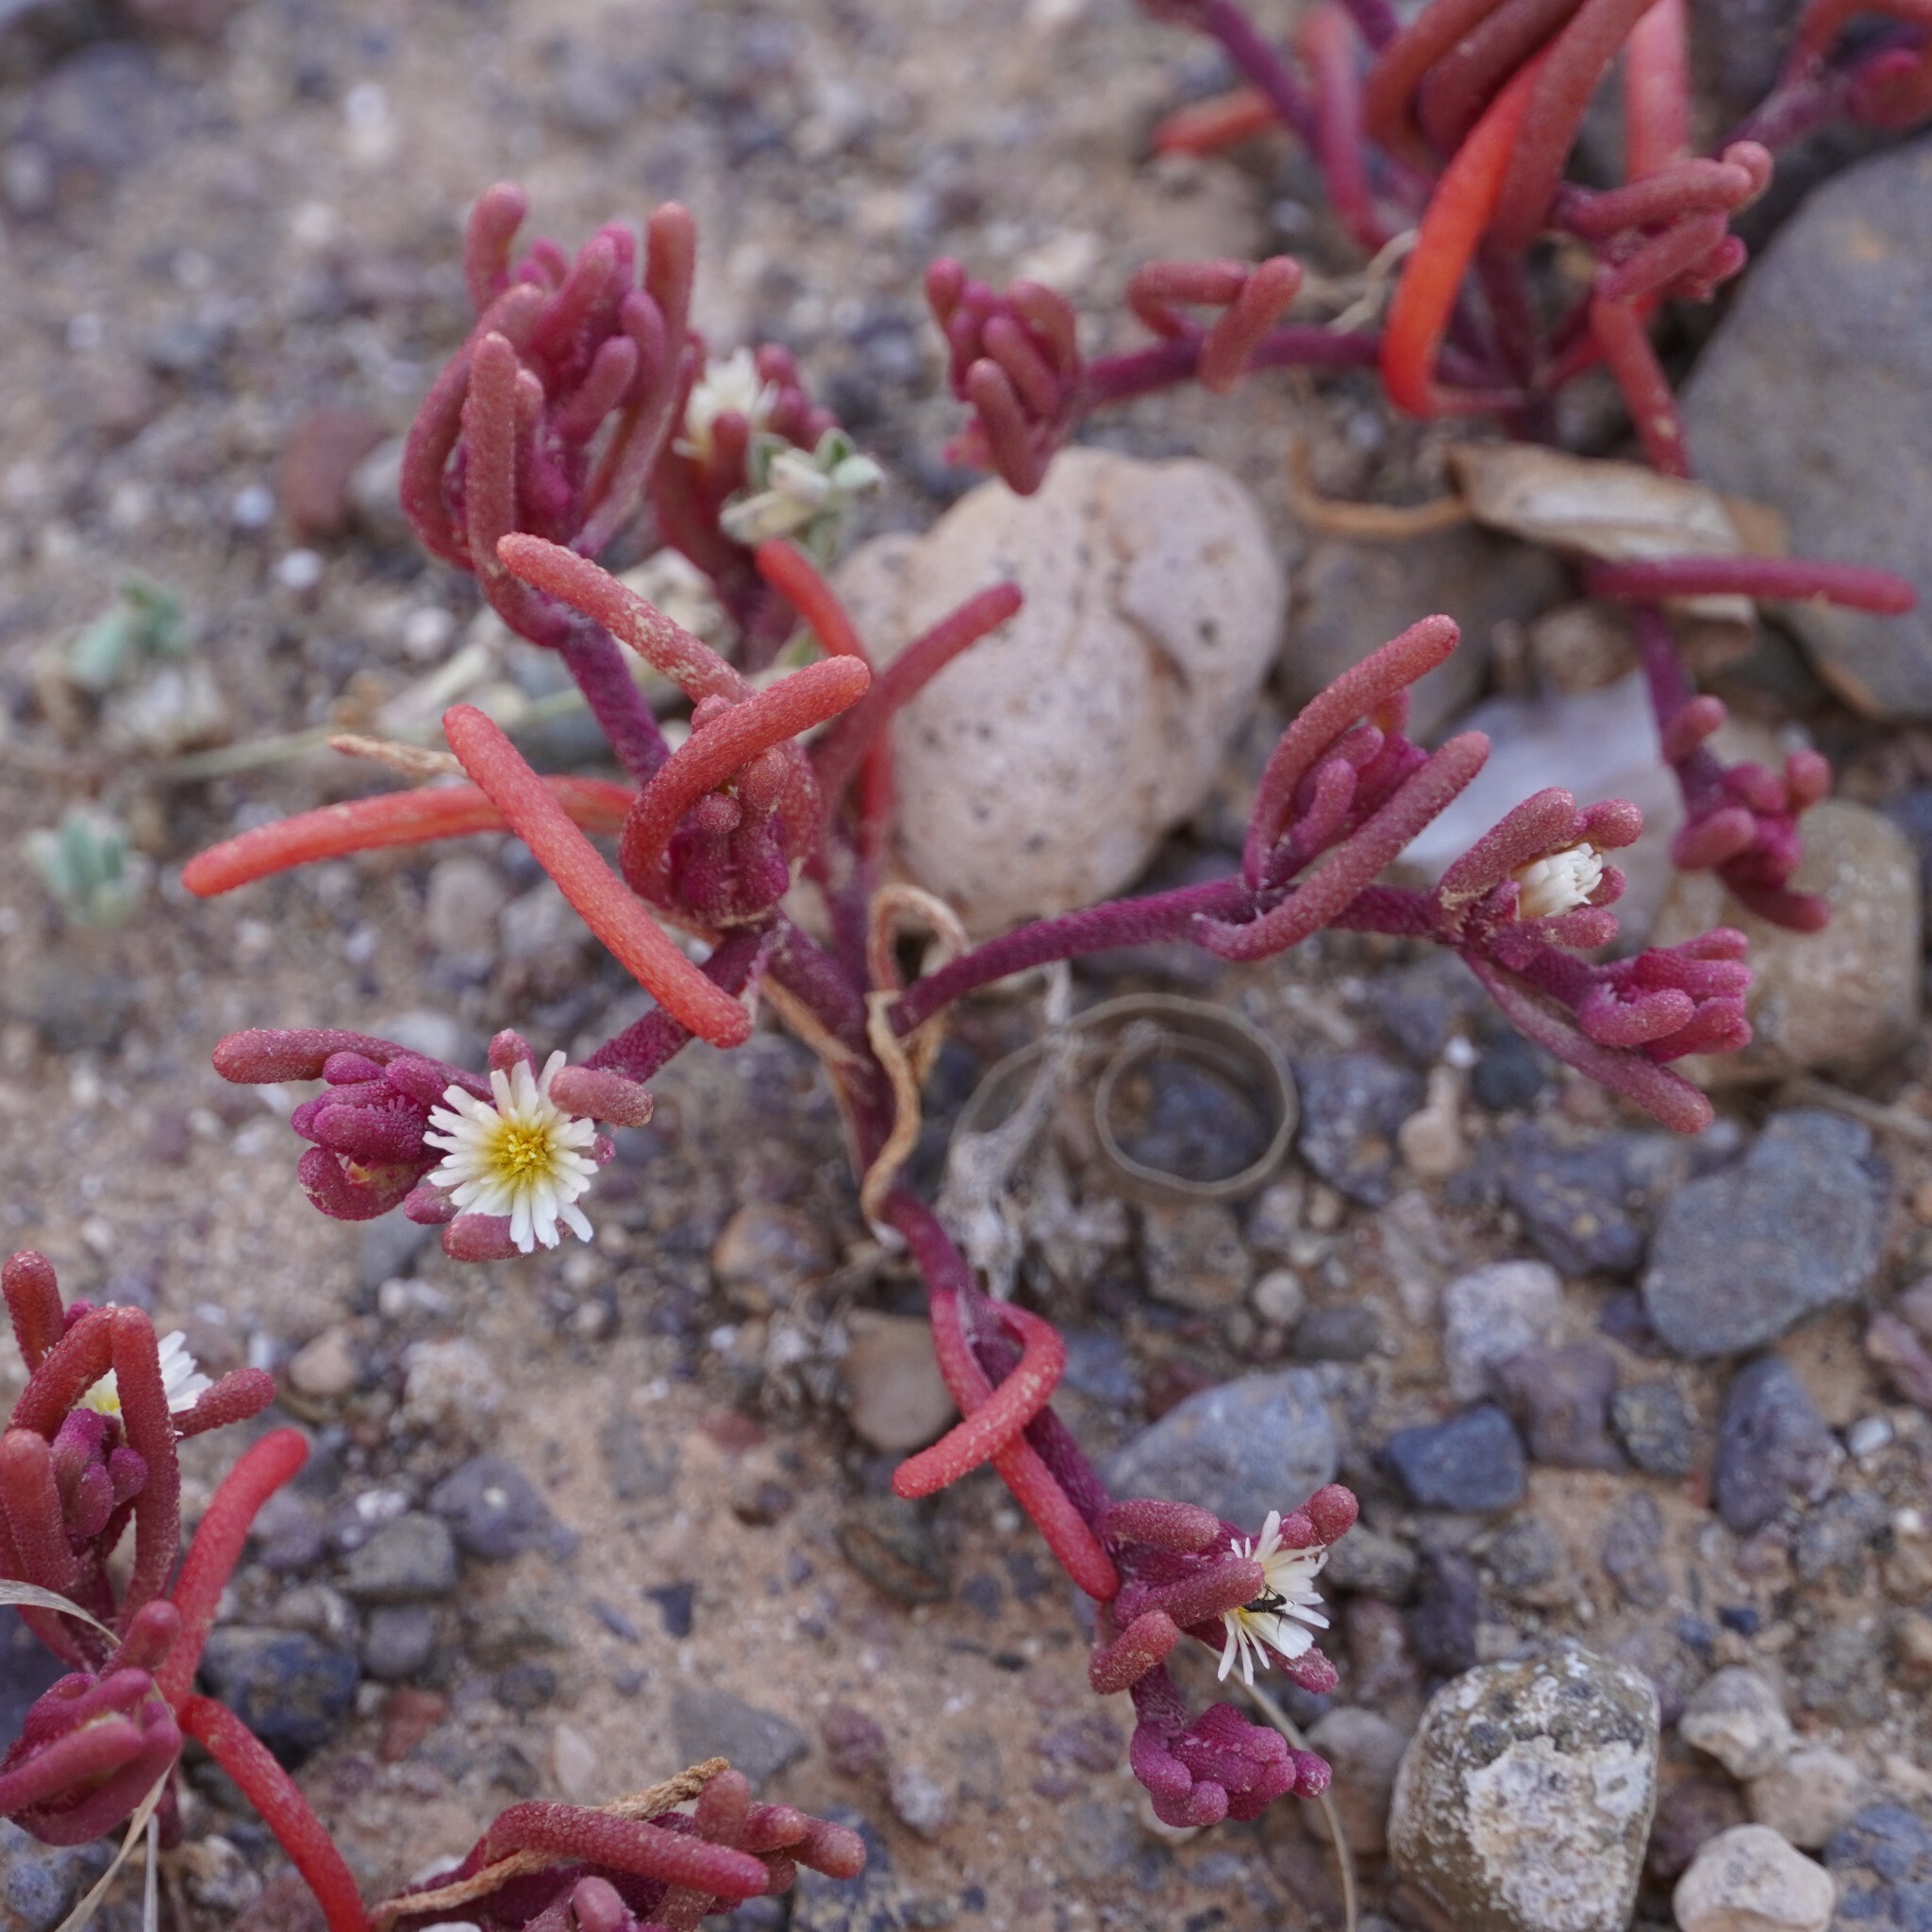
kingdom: Plantae
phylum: Tracheophyta
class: Magnoliopsida
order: Caryophyllales
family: Aizoaceae
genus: Mesembryanthemum
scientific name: Mesembryanthemum nodiflorum
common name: Slenderleaf iceplant
